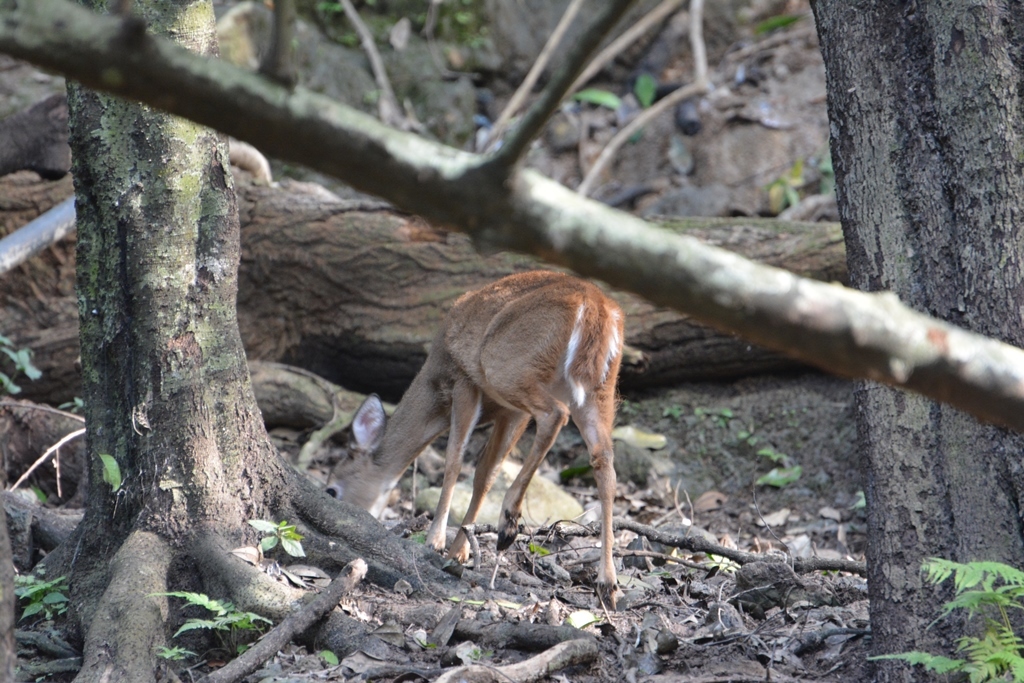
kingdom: Animalia
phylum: Chordata
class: Mammalia
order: Artiodactyla
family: Cervidae
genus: Odocoileus
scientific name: Odocoileus virginianus
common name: White-tailed deer
